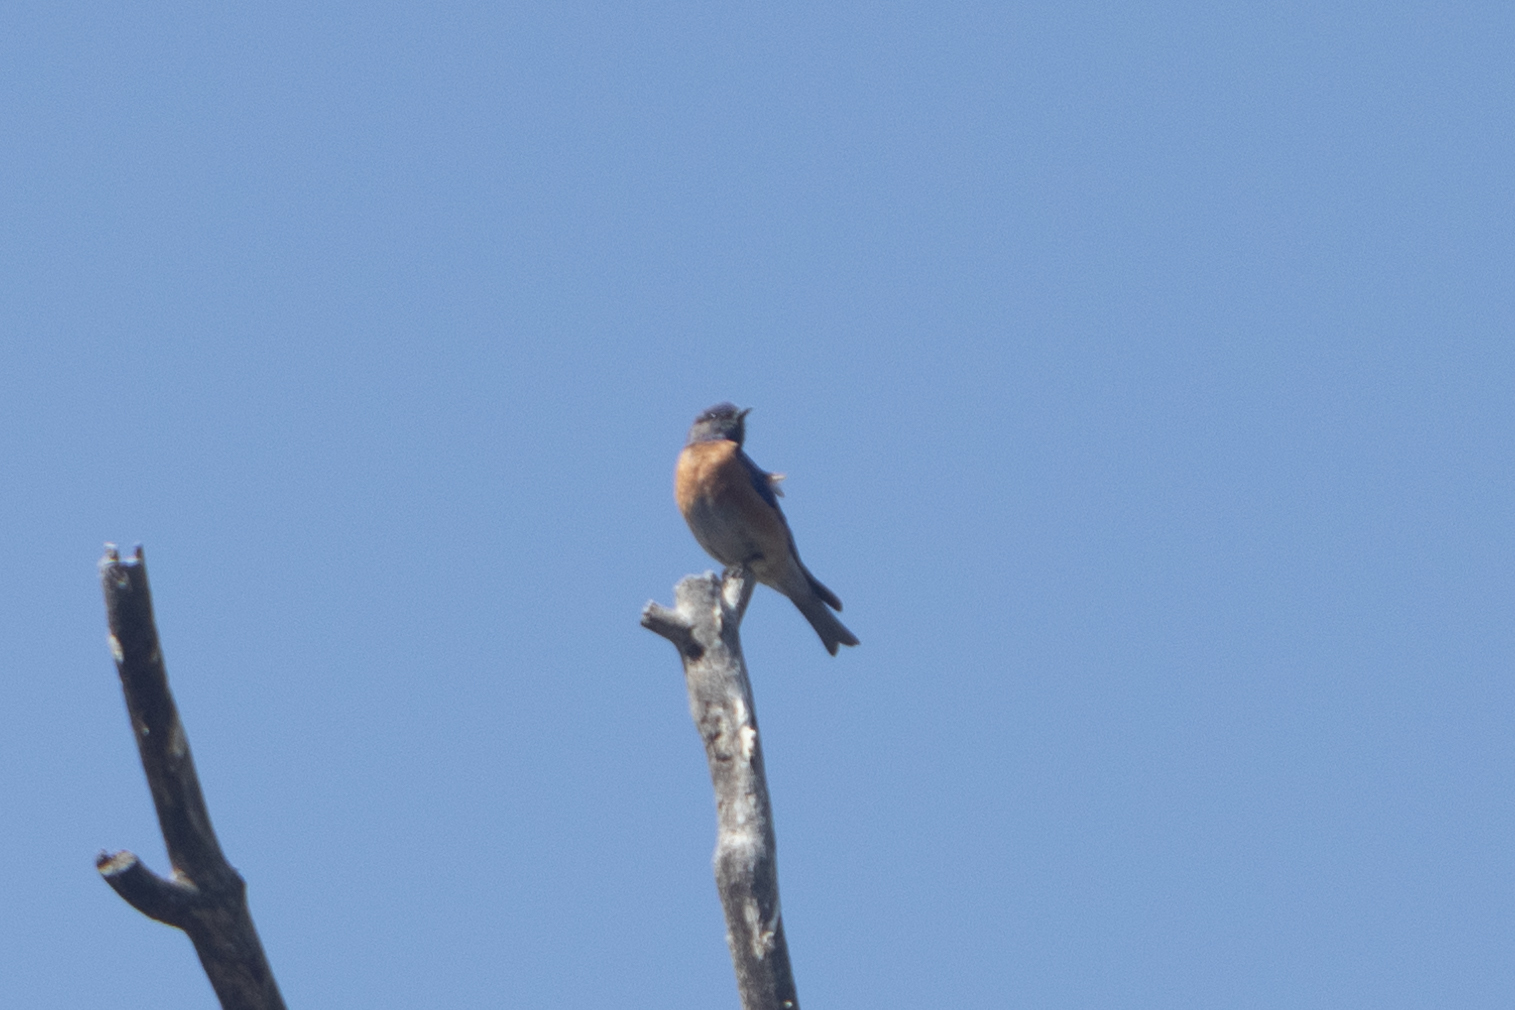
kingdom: Animalia
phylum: Chordata
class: Aves
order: Passeriformes
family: Turdidae
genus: Sialia
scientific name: Sialia mexicana
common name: Western bluebird
